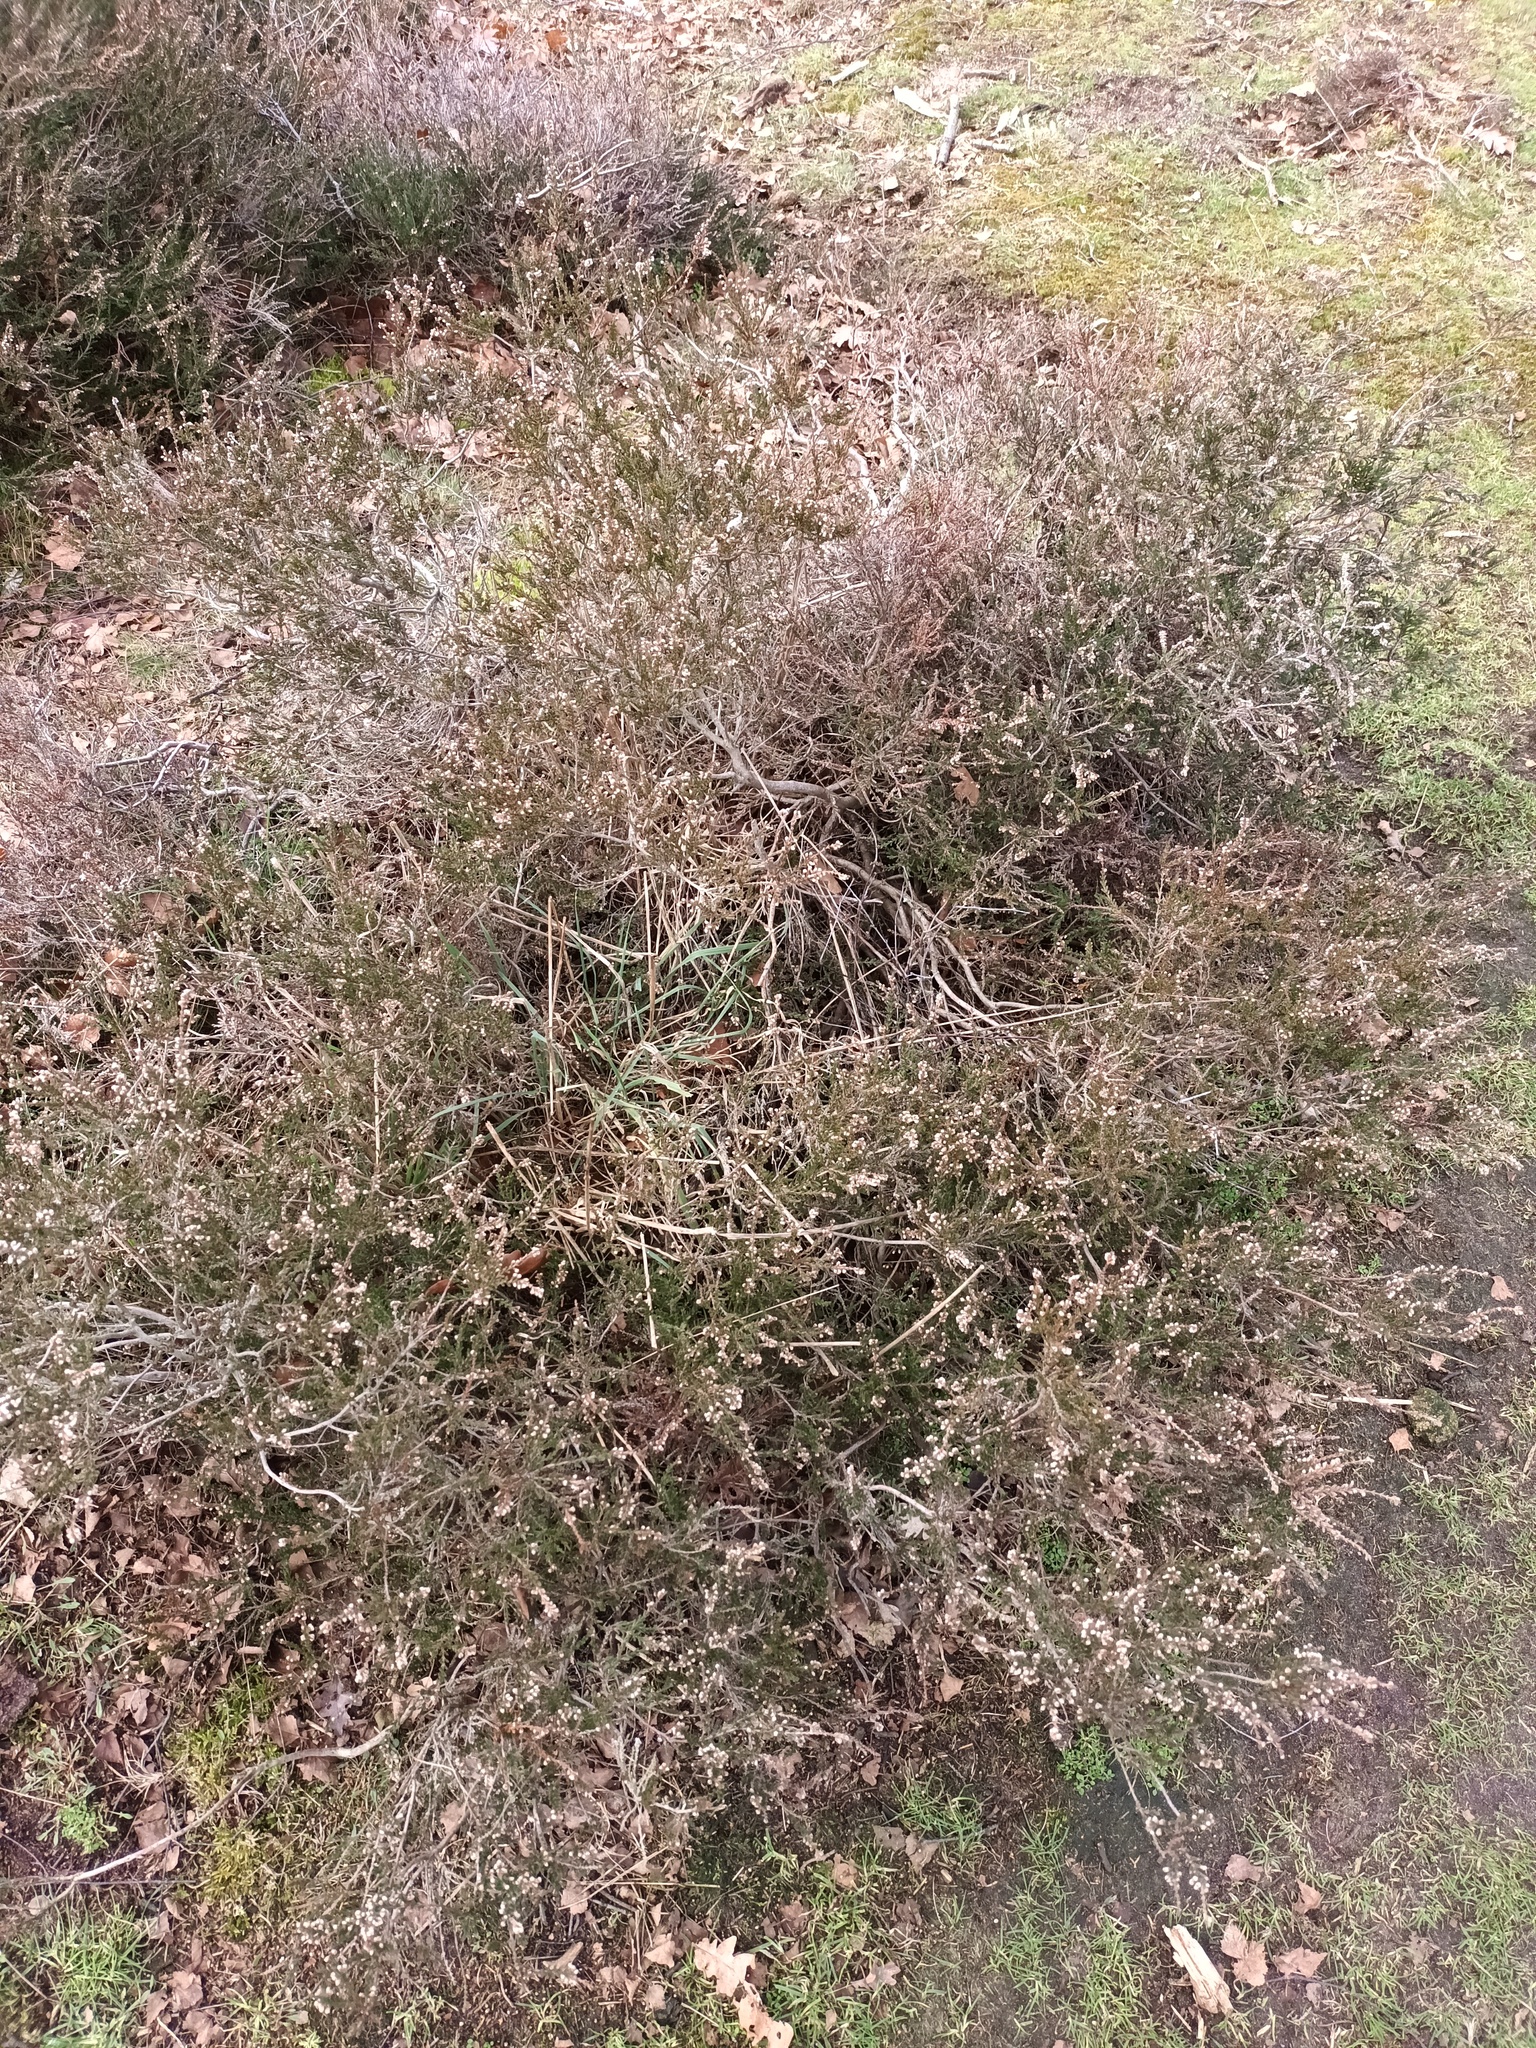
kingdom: Plantae
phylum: Tracheophyta
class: Magnoliopsida
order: Ericales
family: Ericaceae
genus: Calluna
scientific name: Calluna vulgaris
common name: Heather
